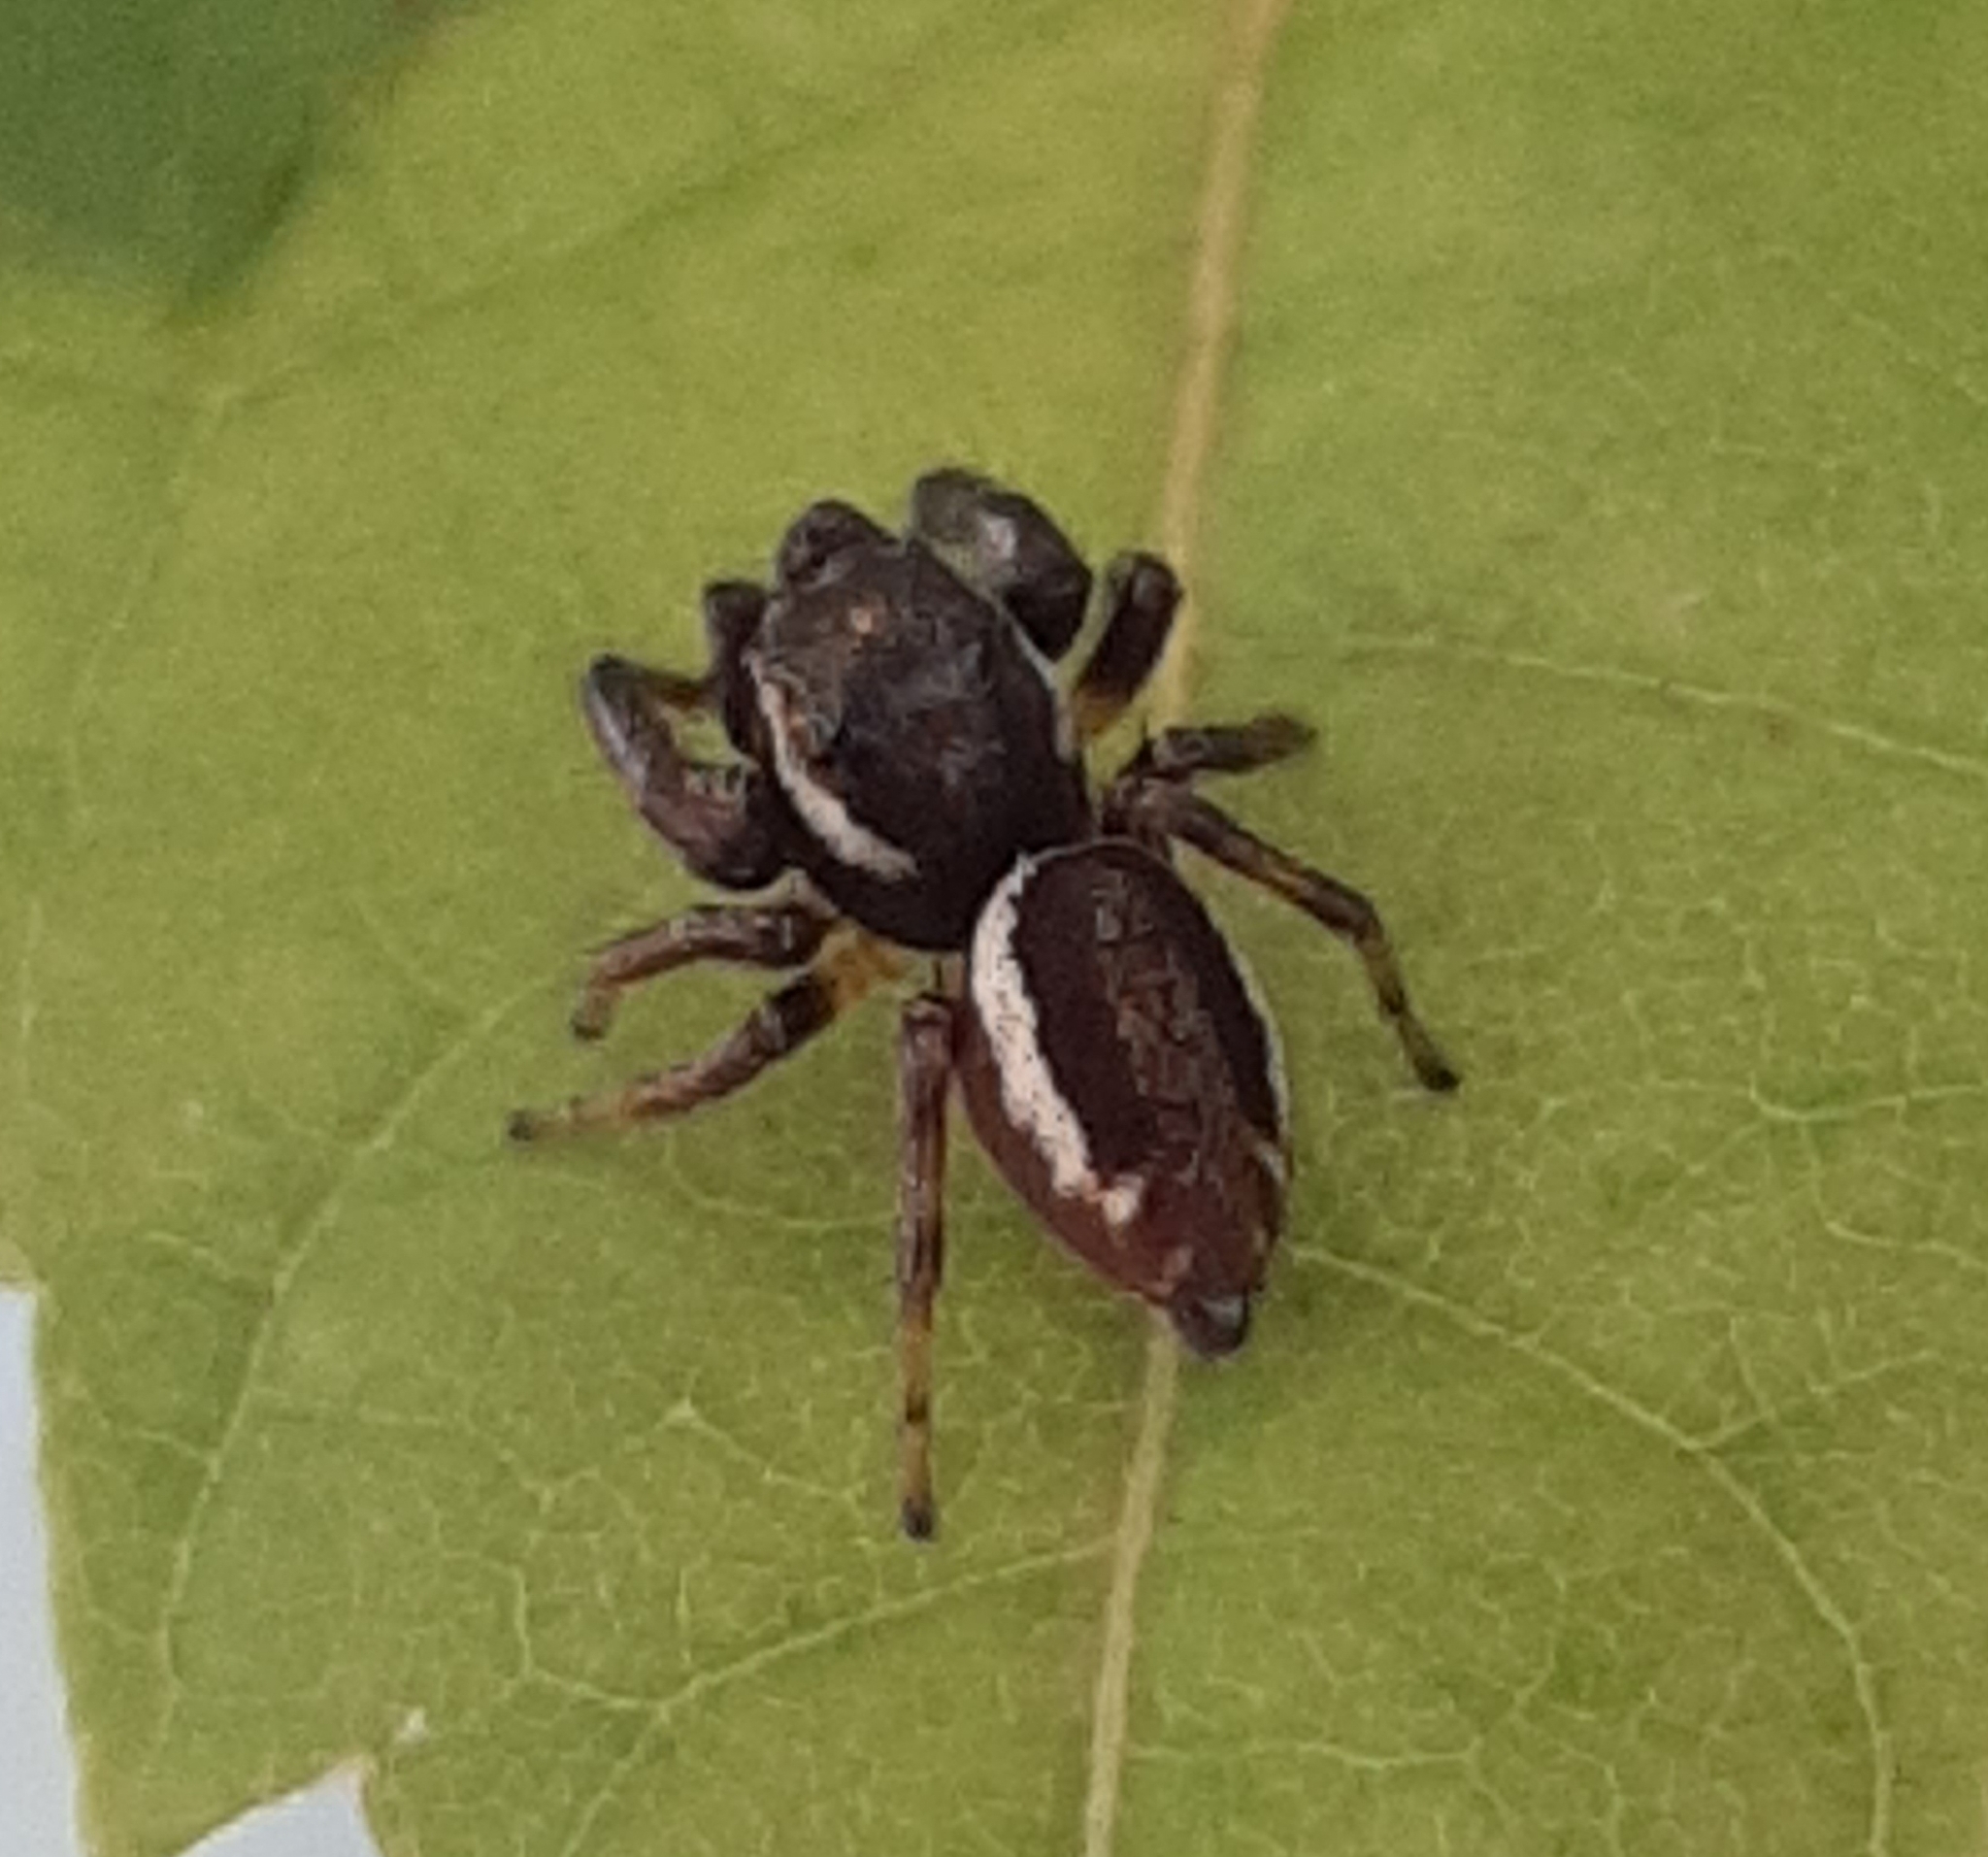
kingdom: Animalia
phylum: Arthropoda
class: Arachnida
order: Araneae
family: Salticidae
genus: Eris
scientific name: Eris militaris
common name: Bronze jumper
